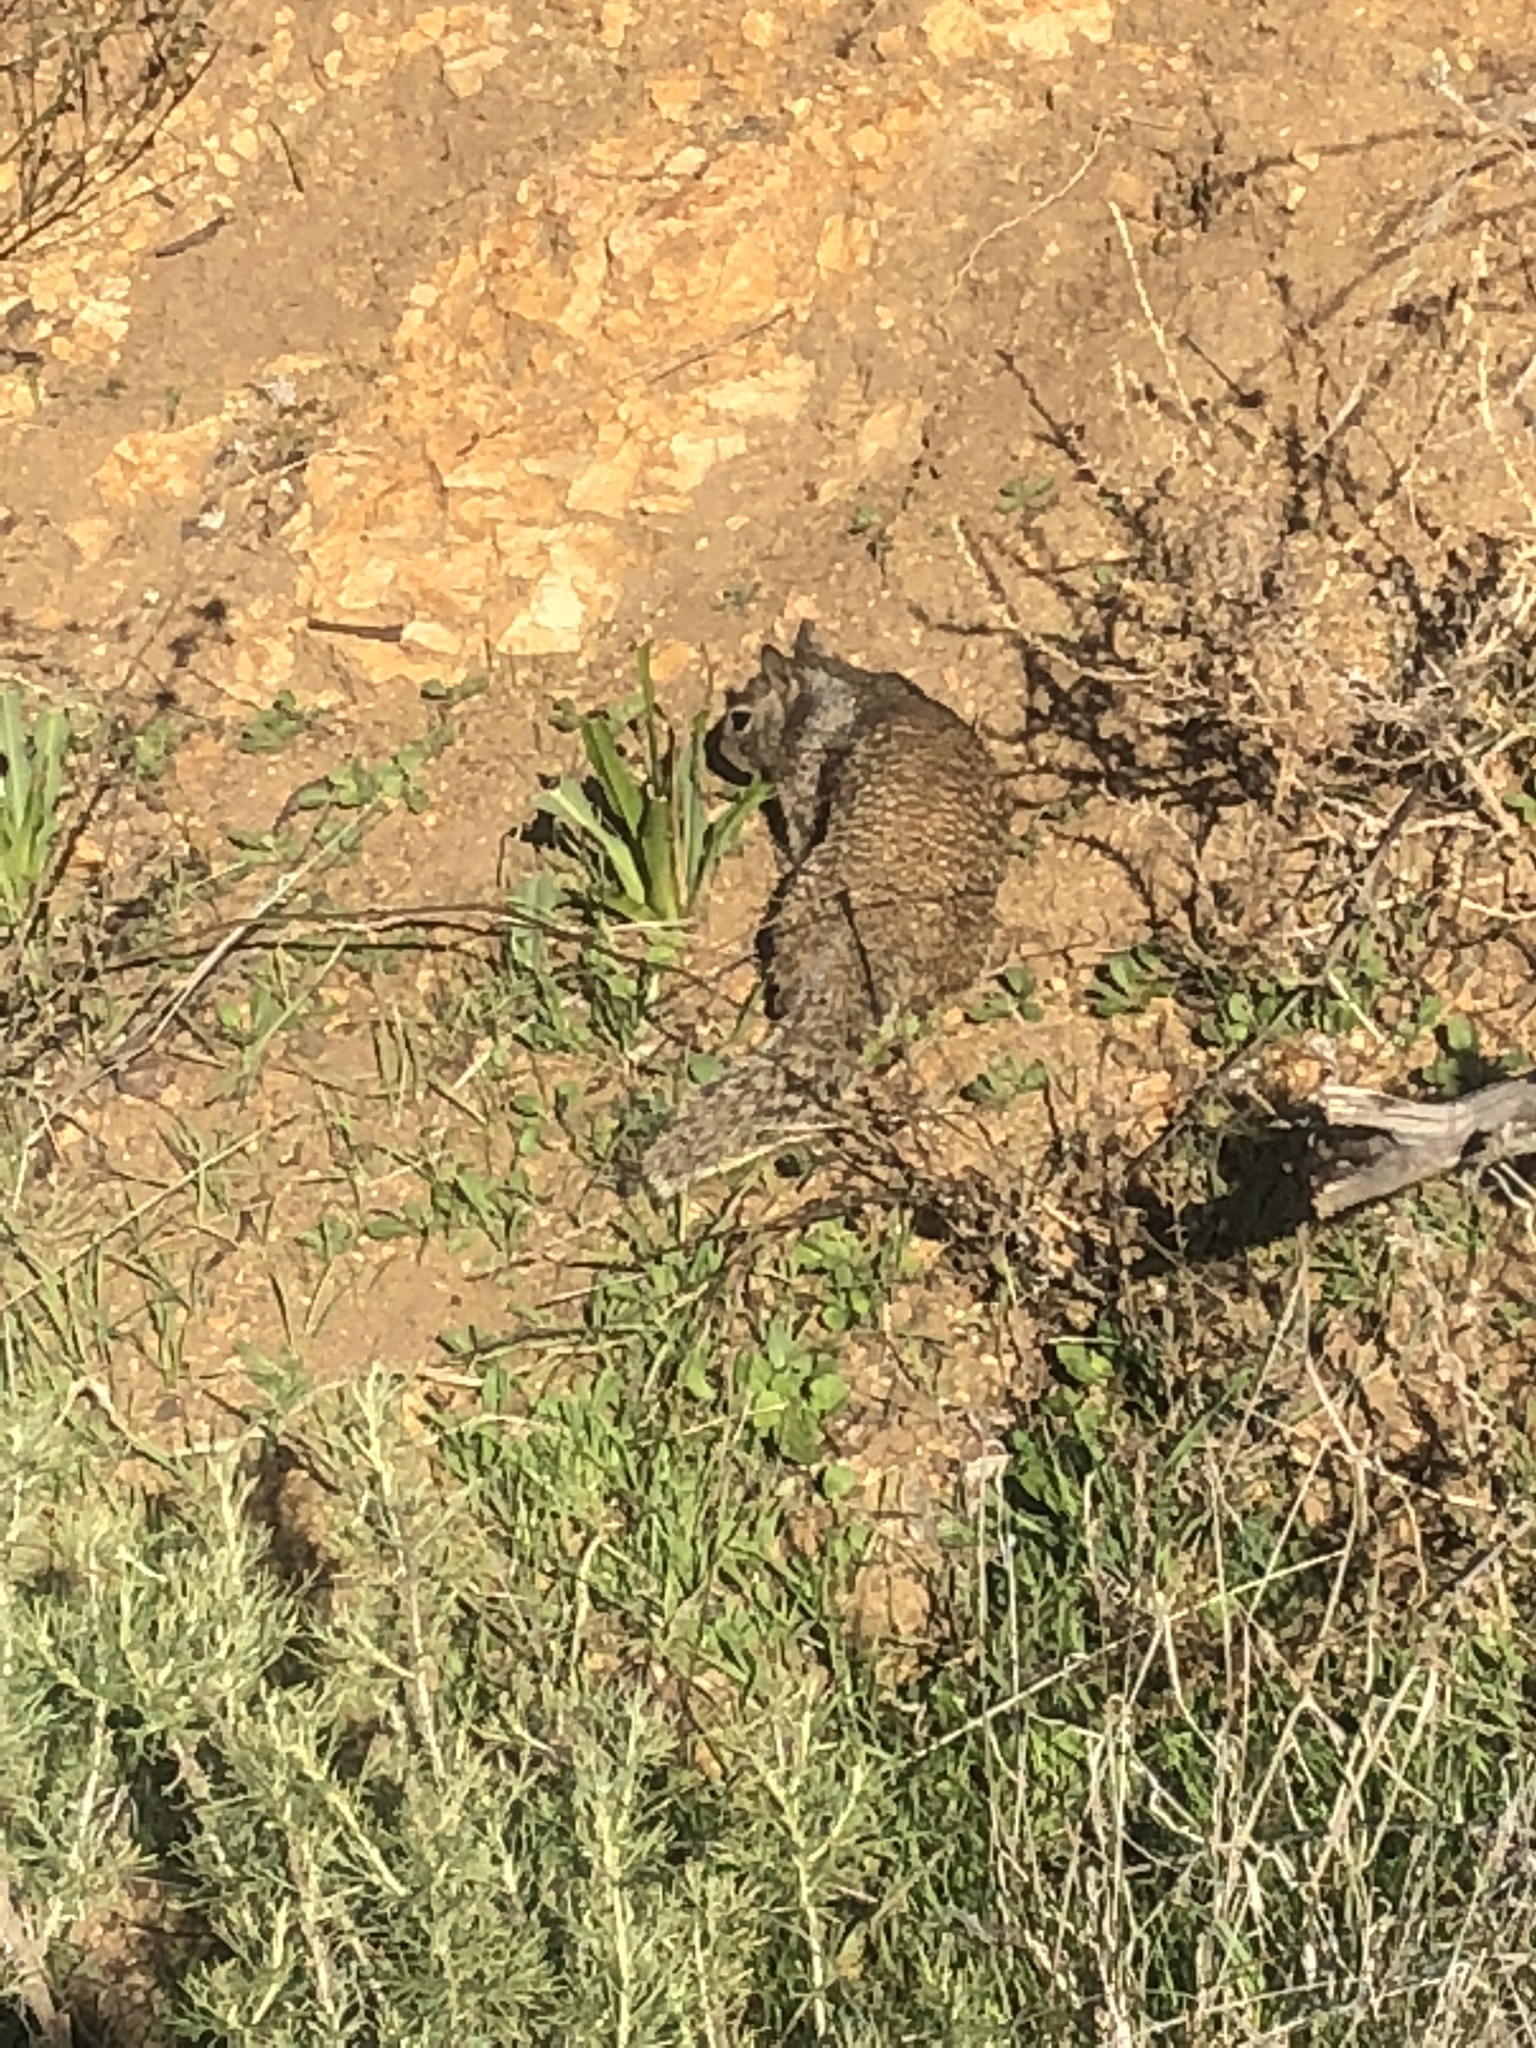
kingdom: Animalia
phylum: Chordata
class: Mammalia
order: Rodentia
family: Sciuridae
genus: Otospermophilus
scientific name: Otospermophilus beecheyi
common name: California ground squirrel
